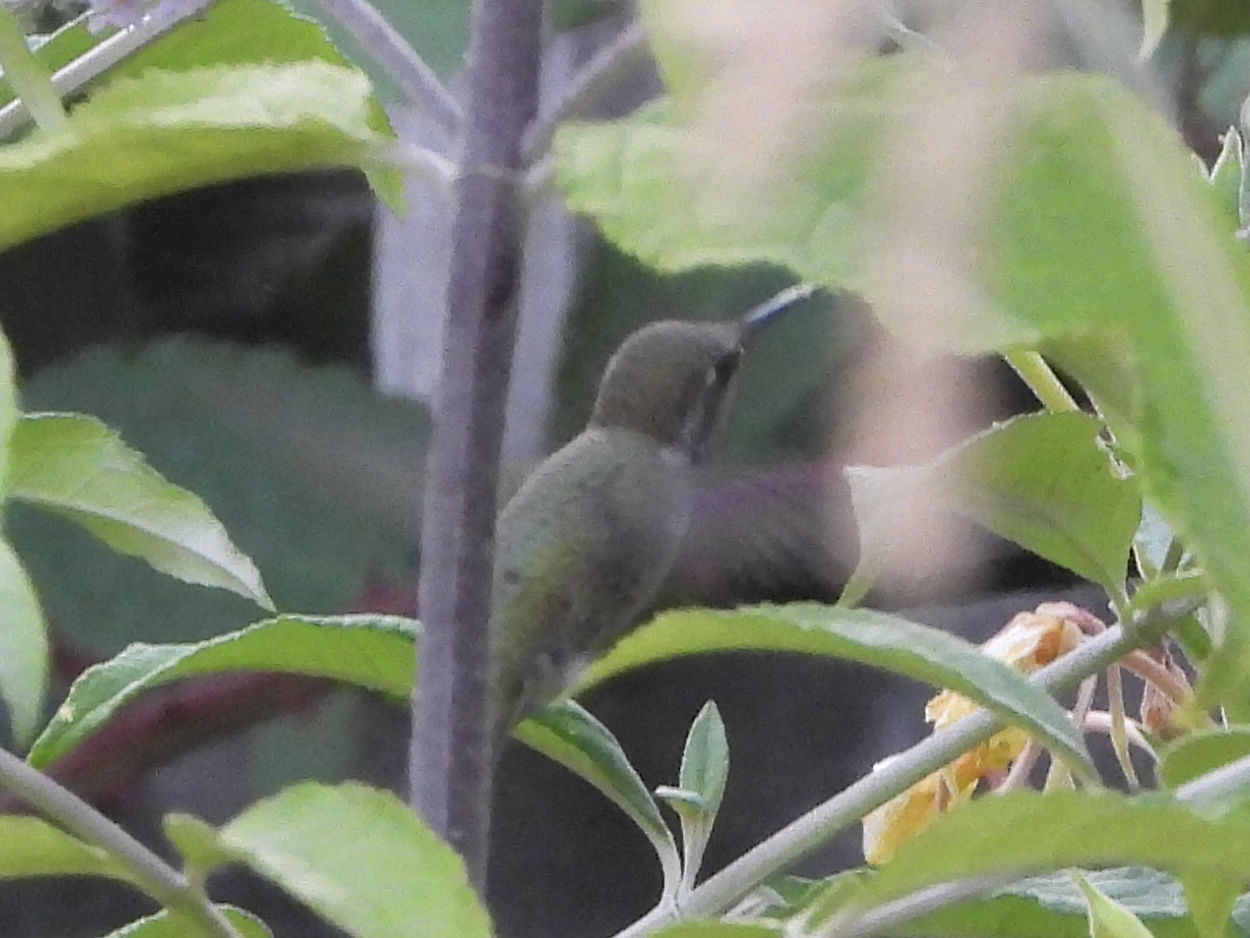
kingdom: Animalia
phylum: Chordata
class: Aves
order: Apodiformes
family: Trochilidae
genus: Calypte
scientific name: Calypte anna
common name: Anna's hummingbird
